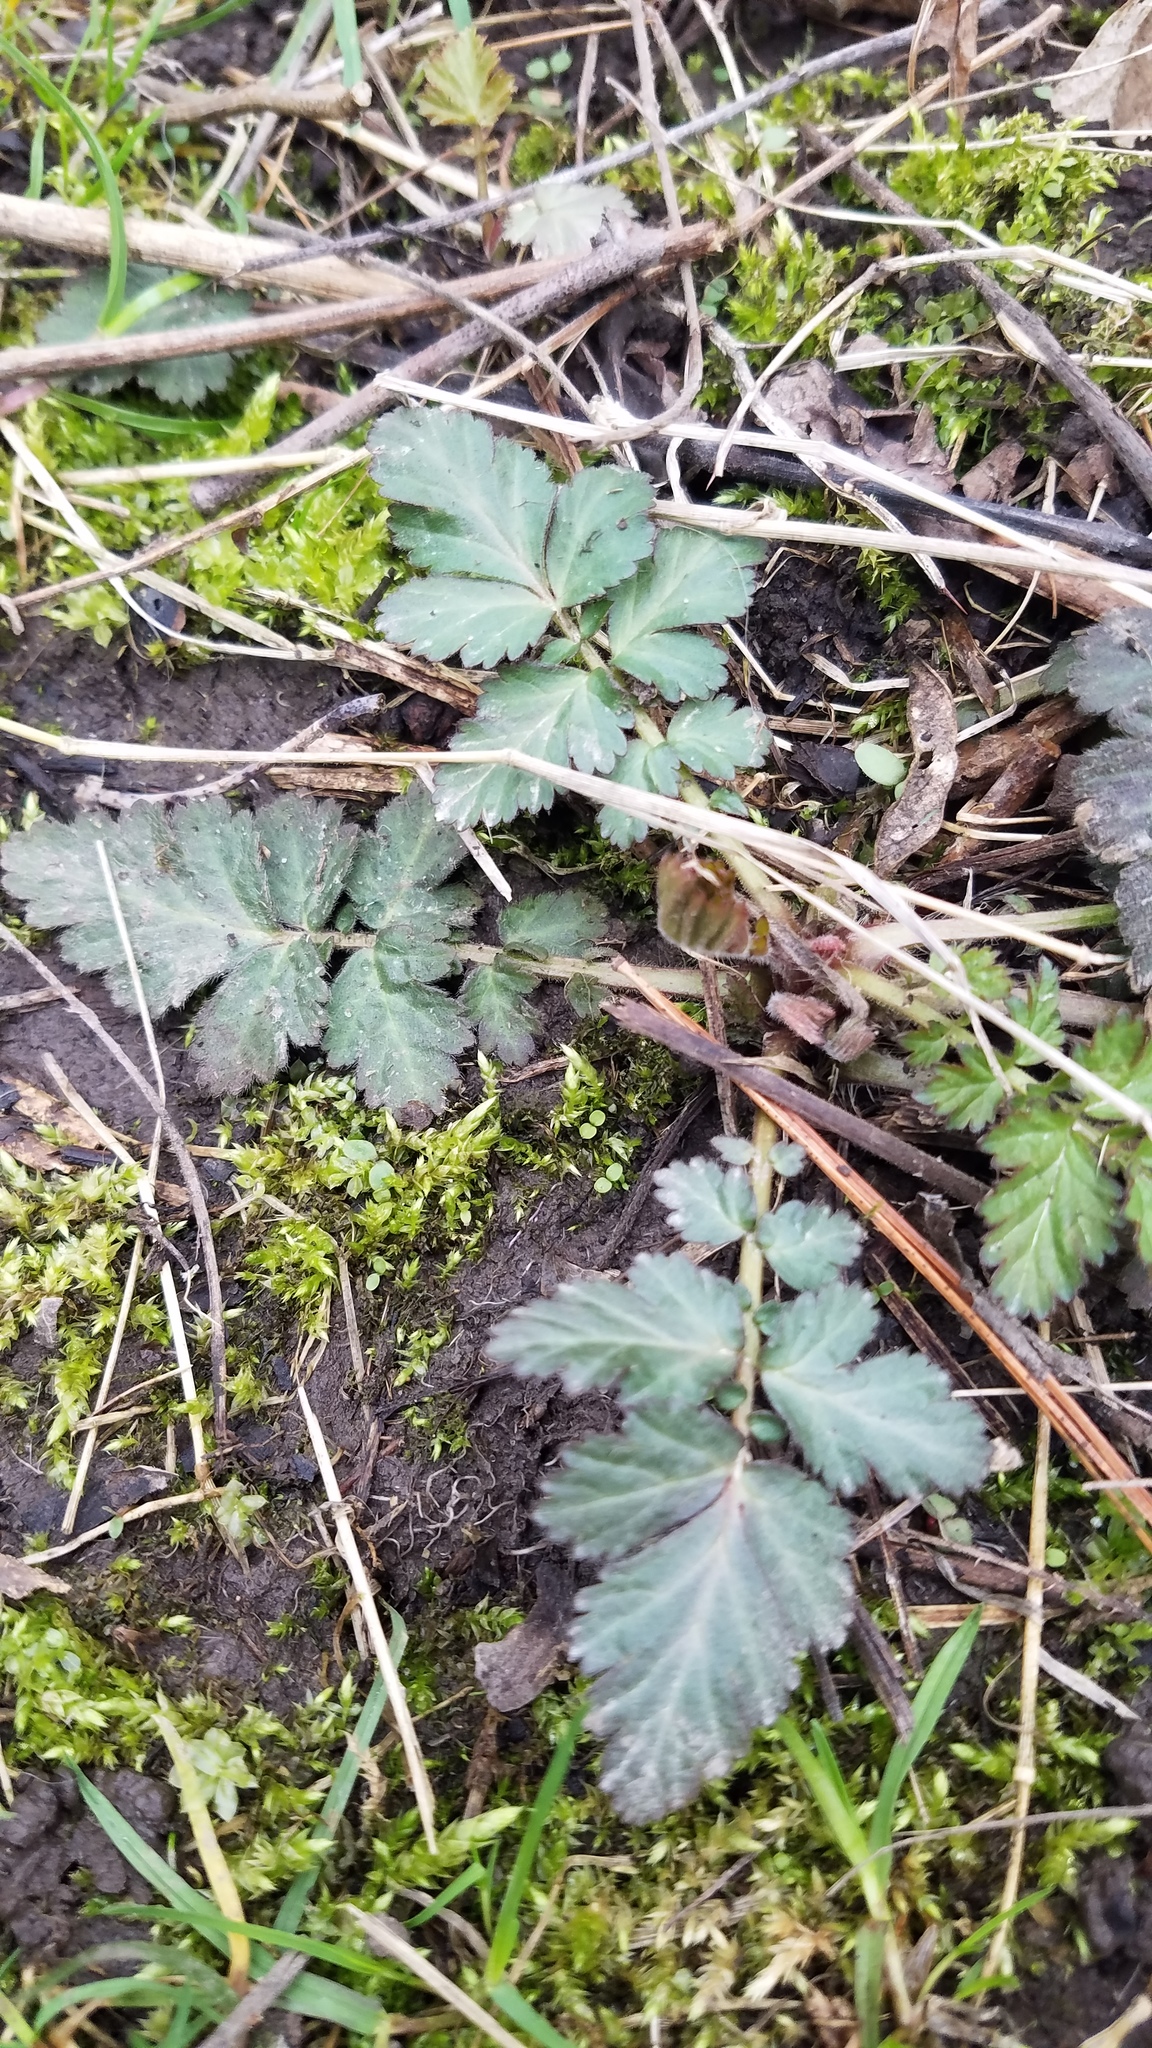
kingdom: Plantae
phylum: Tracheophyta
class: Magnoliopsida
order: Rosales
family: Rosaceae
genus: Geum
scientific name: Geum canadense
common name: White avens
